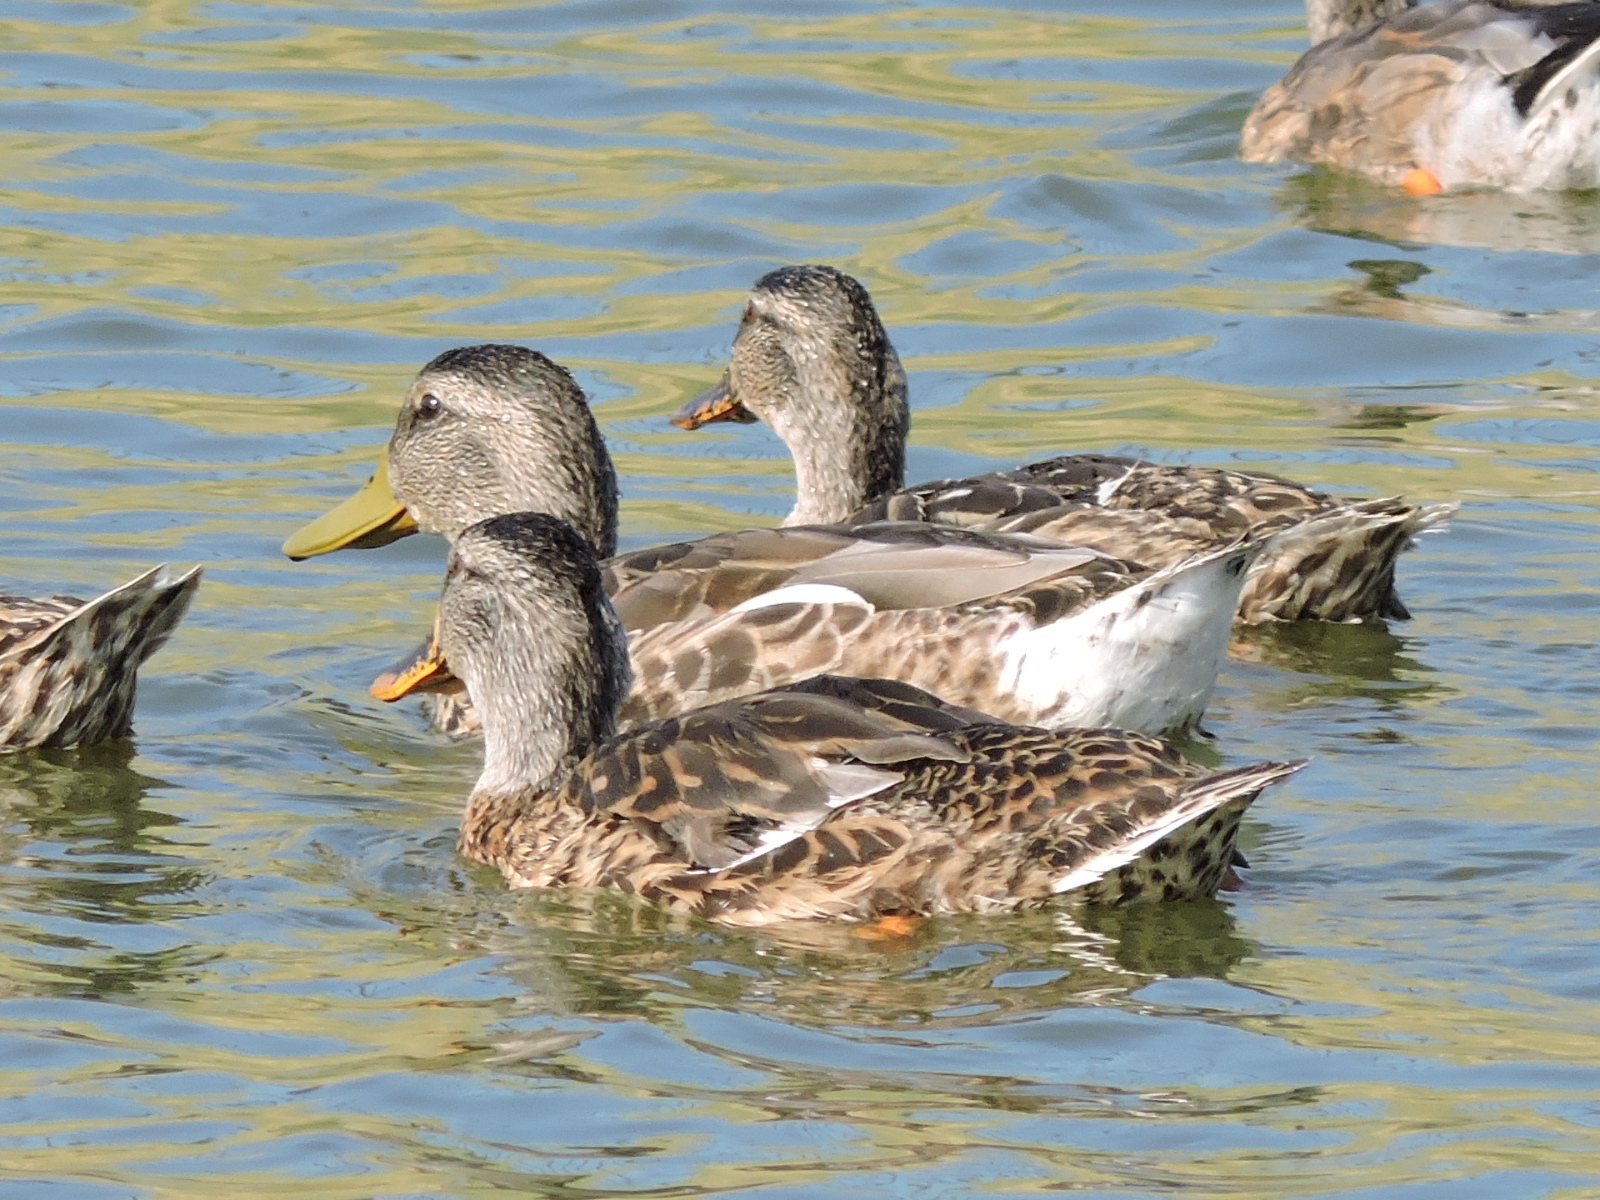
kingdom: Animalia
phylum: Chordata
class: Aves
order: Anseriformes
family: Anatidae
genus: Anas
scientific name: Anas platyrhynchos
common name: Mallard
